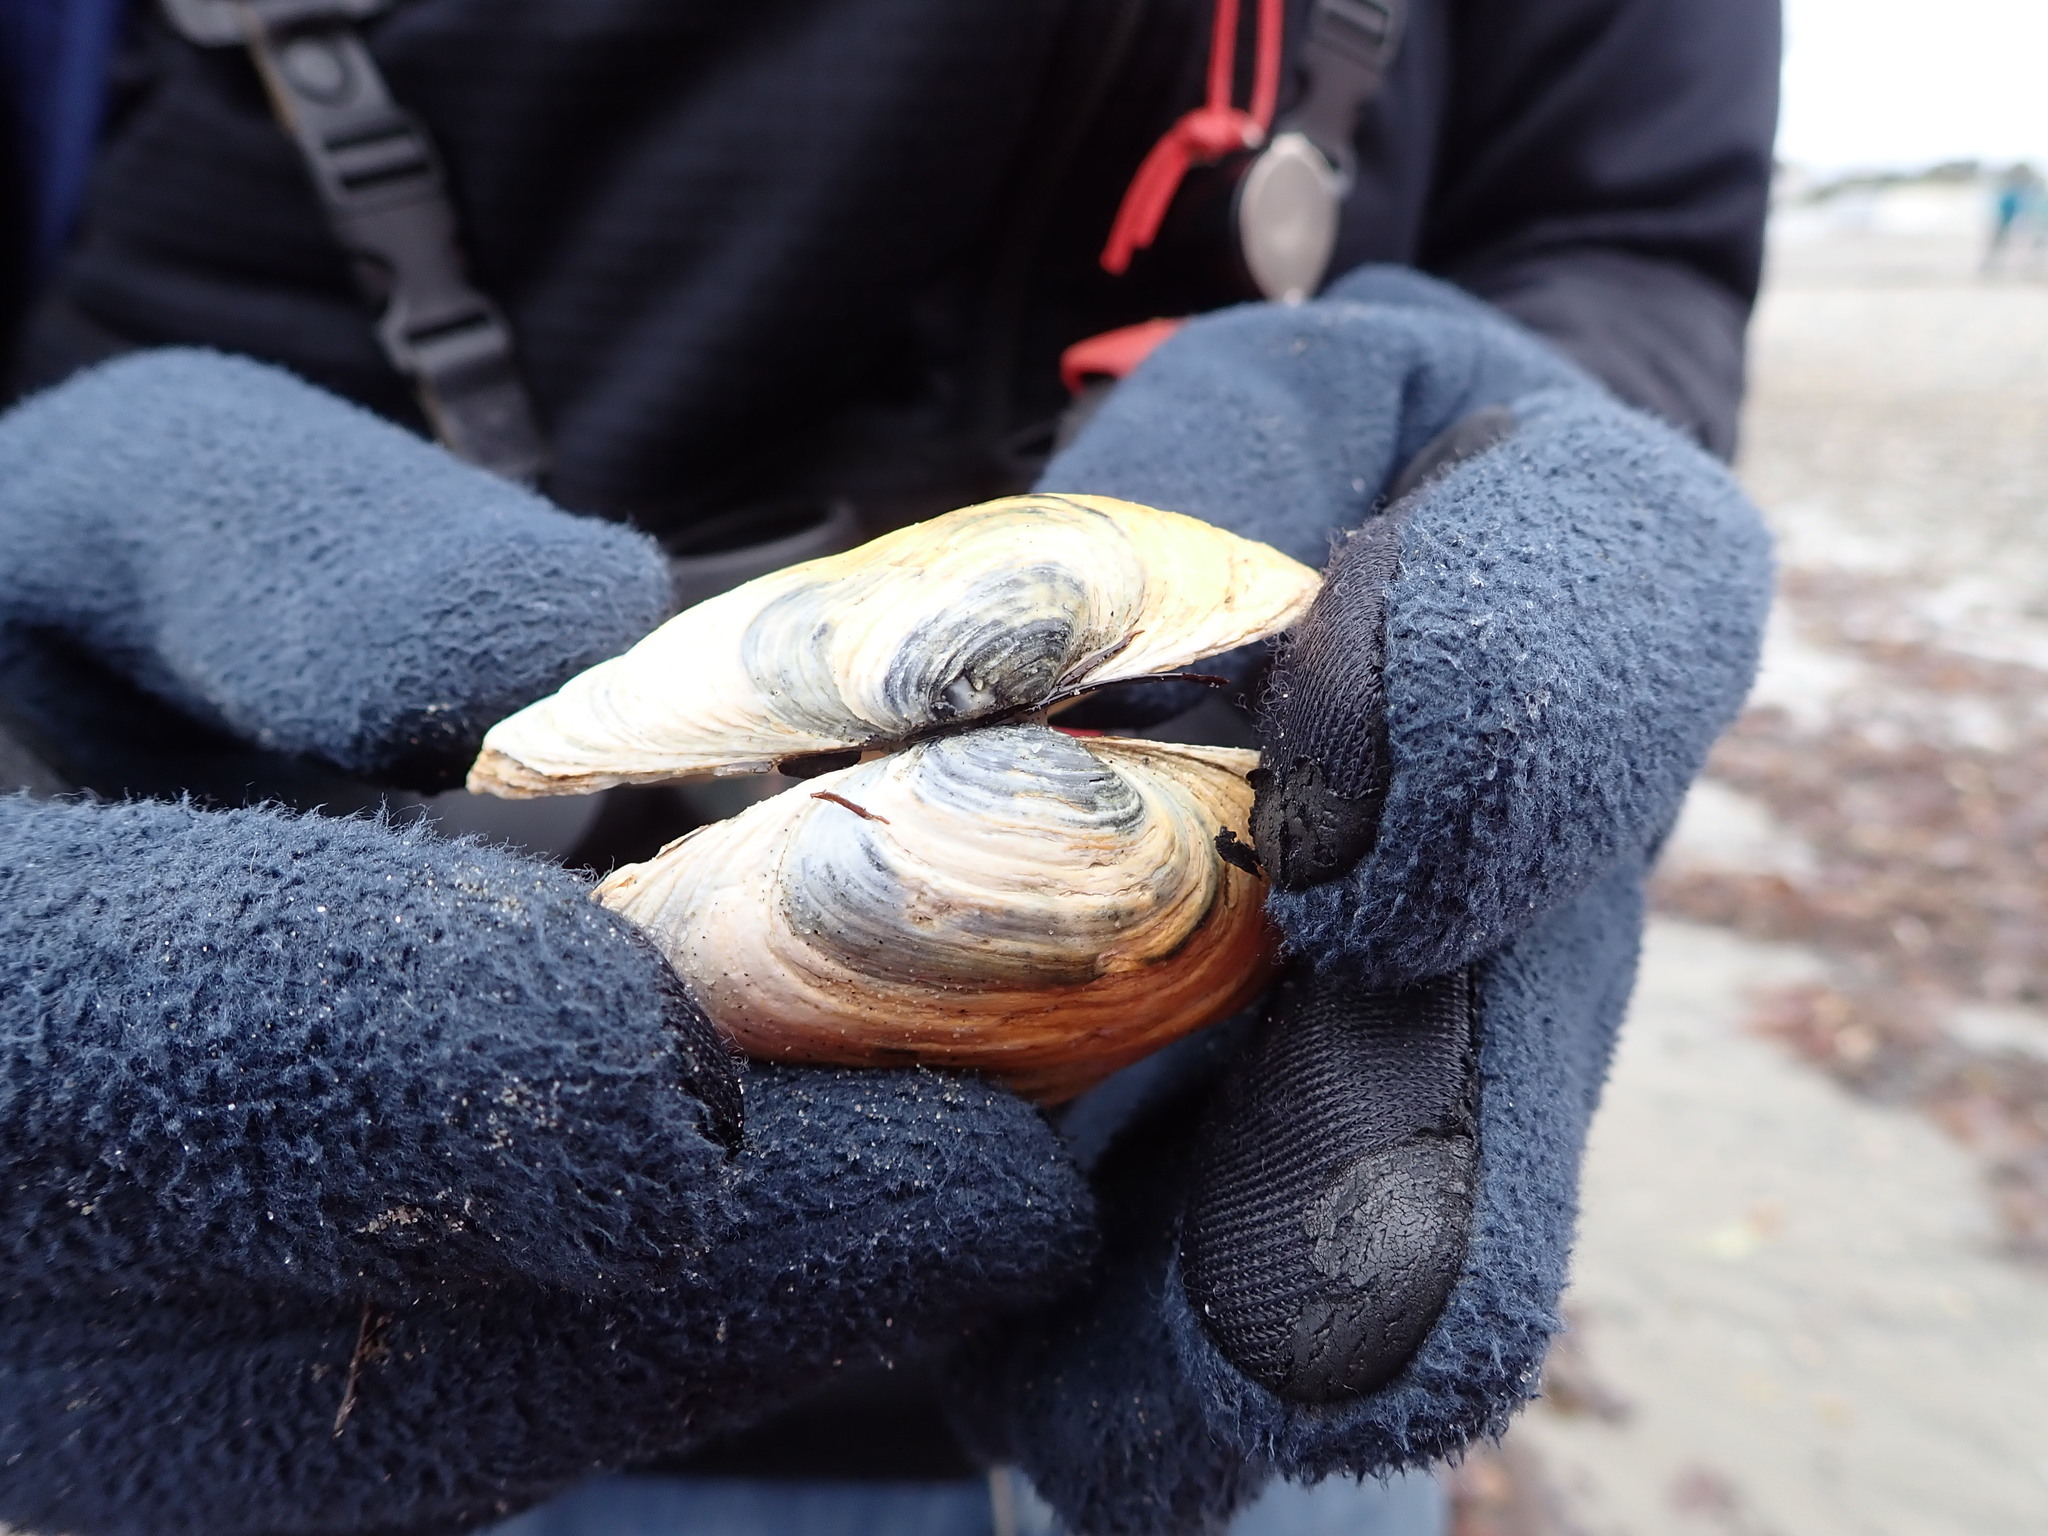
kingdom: Animalia
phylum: Mollusca
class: Bivalvia
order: Myida
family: Myidae
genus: Mya
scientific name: Mya arenaria
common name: Soft-shelled clam
